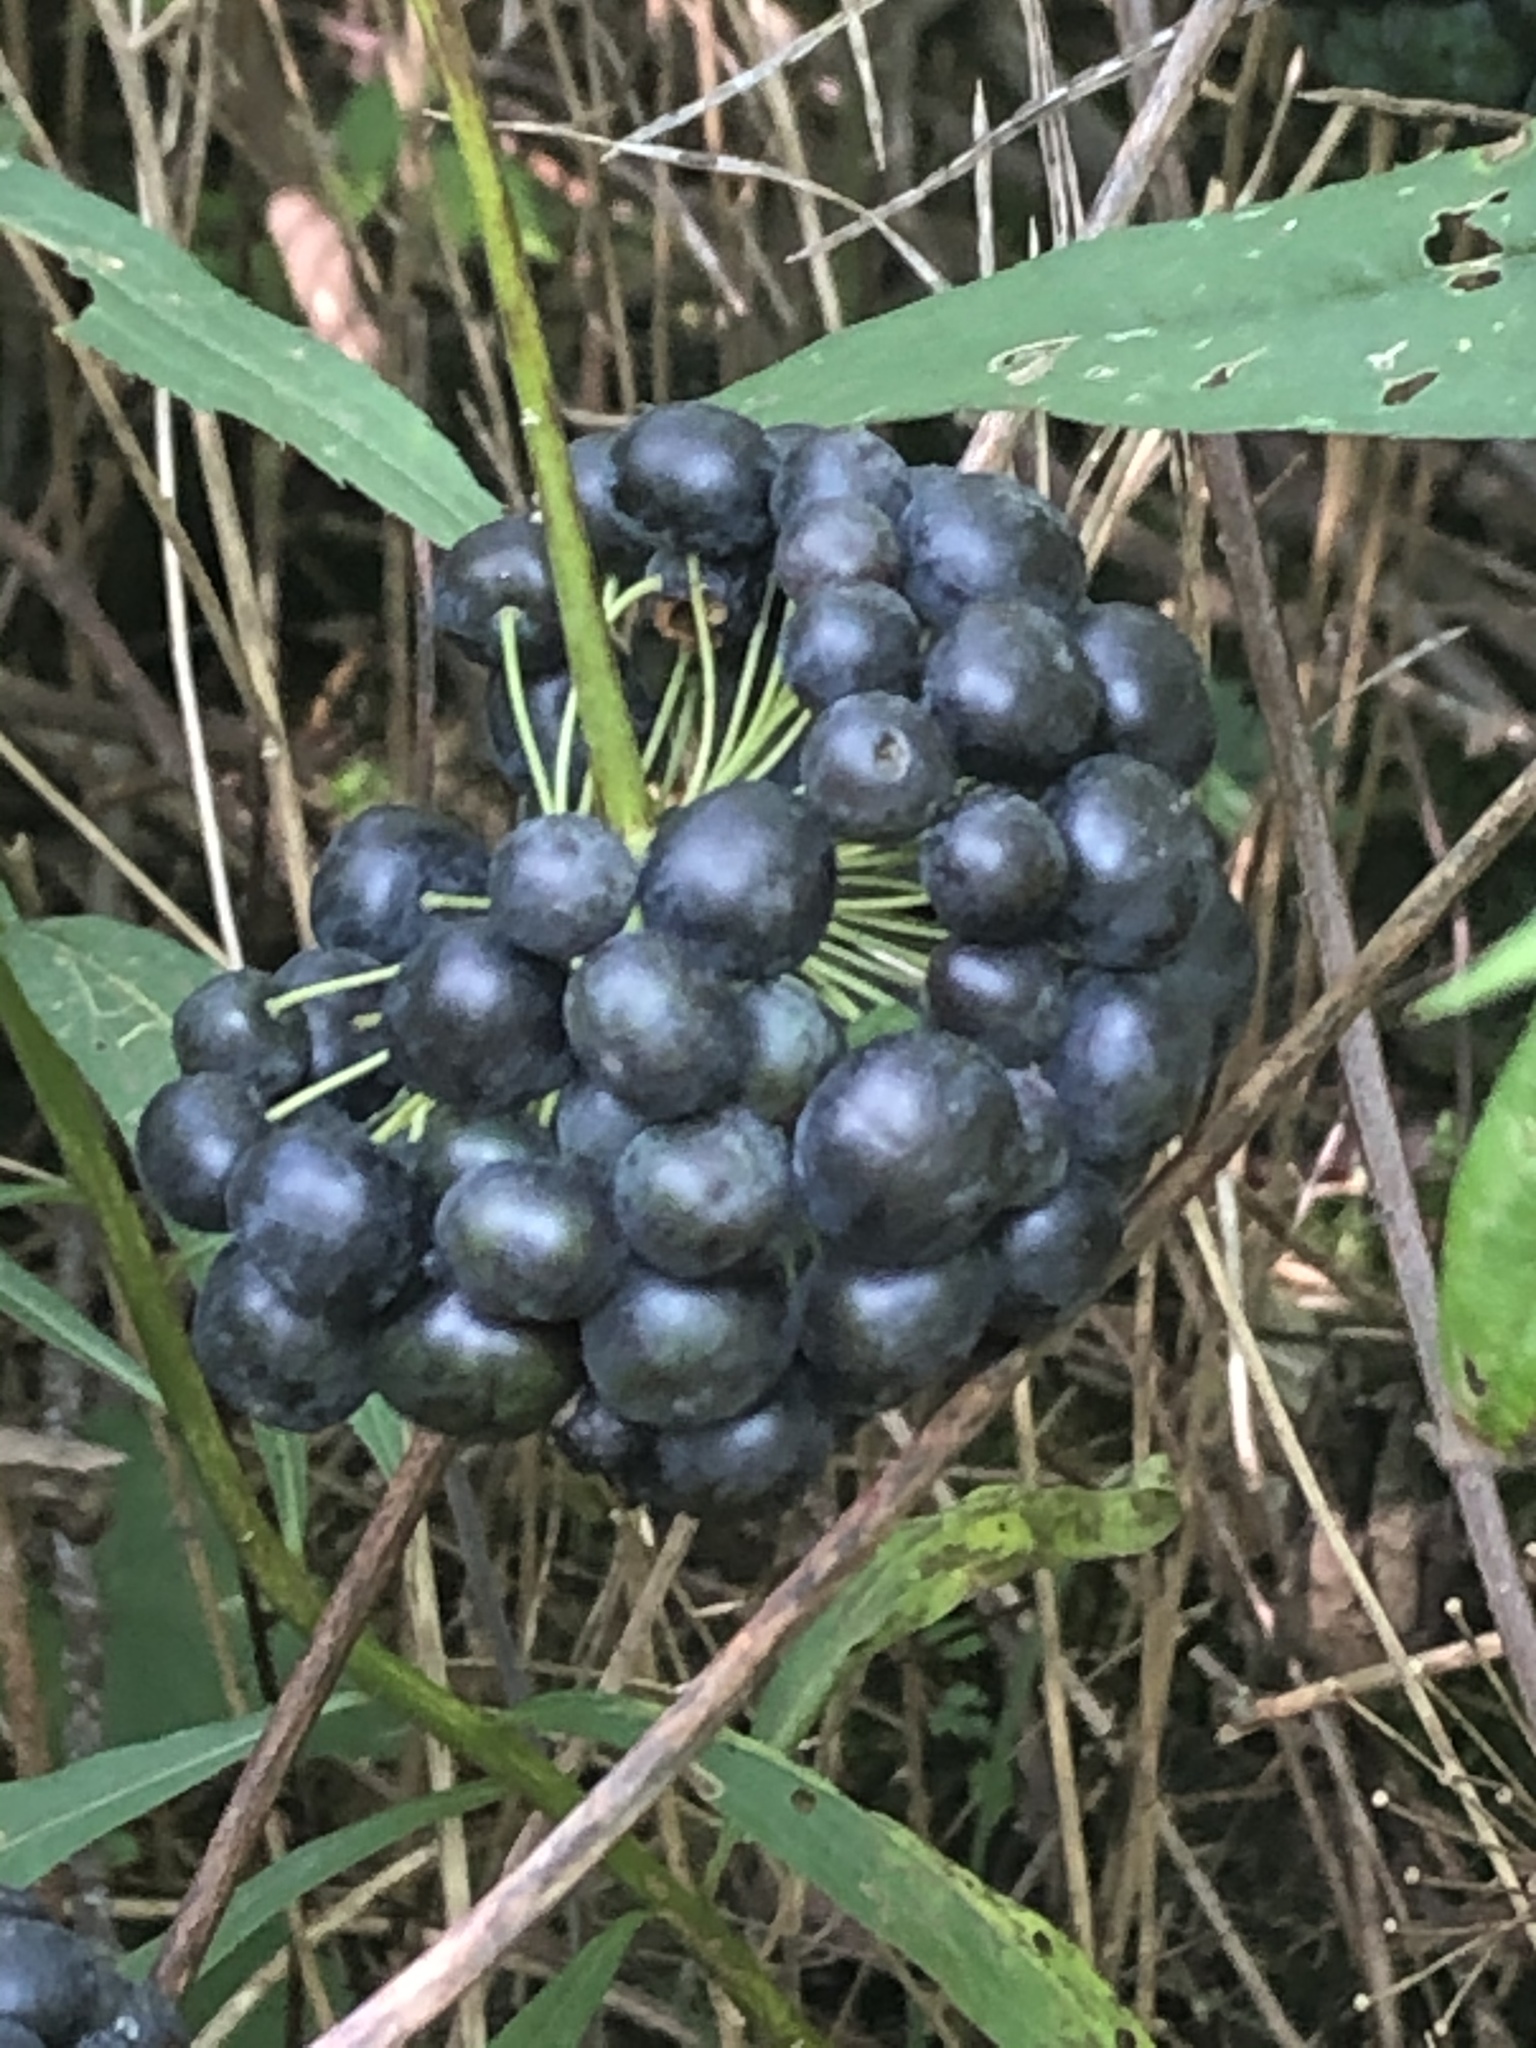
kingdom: Plantae
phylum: Tracheophyta
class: Liliopsida
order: Liliales
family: Smilacaceae
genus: Smilax
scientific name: Smilax lasioneura
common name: Blue ridge carrionflower
